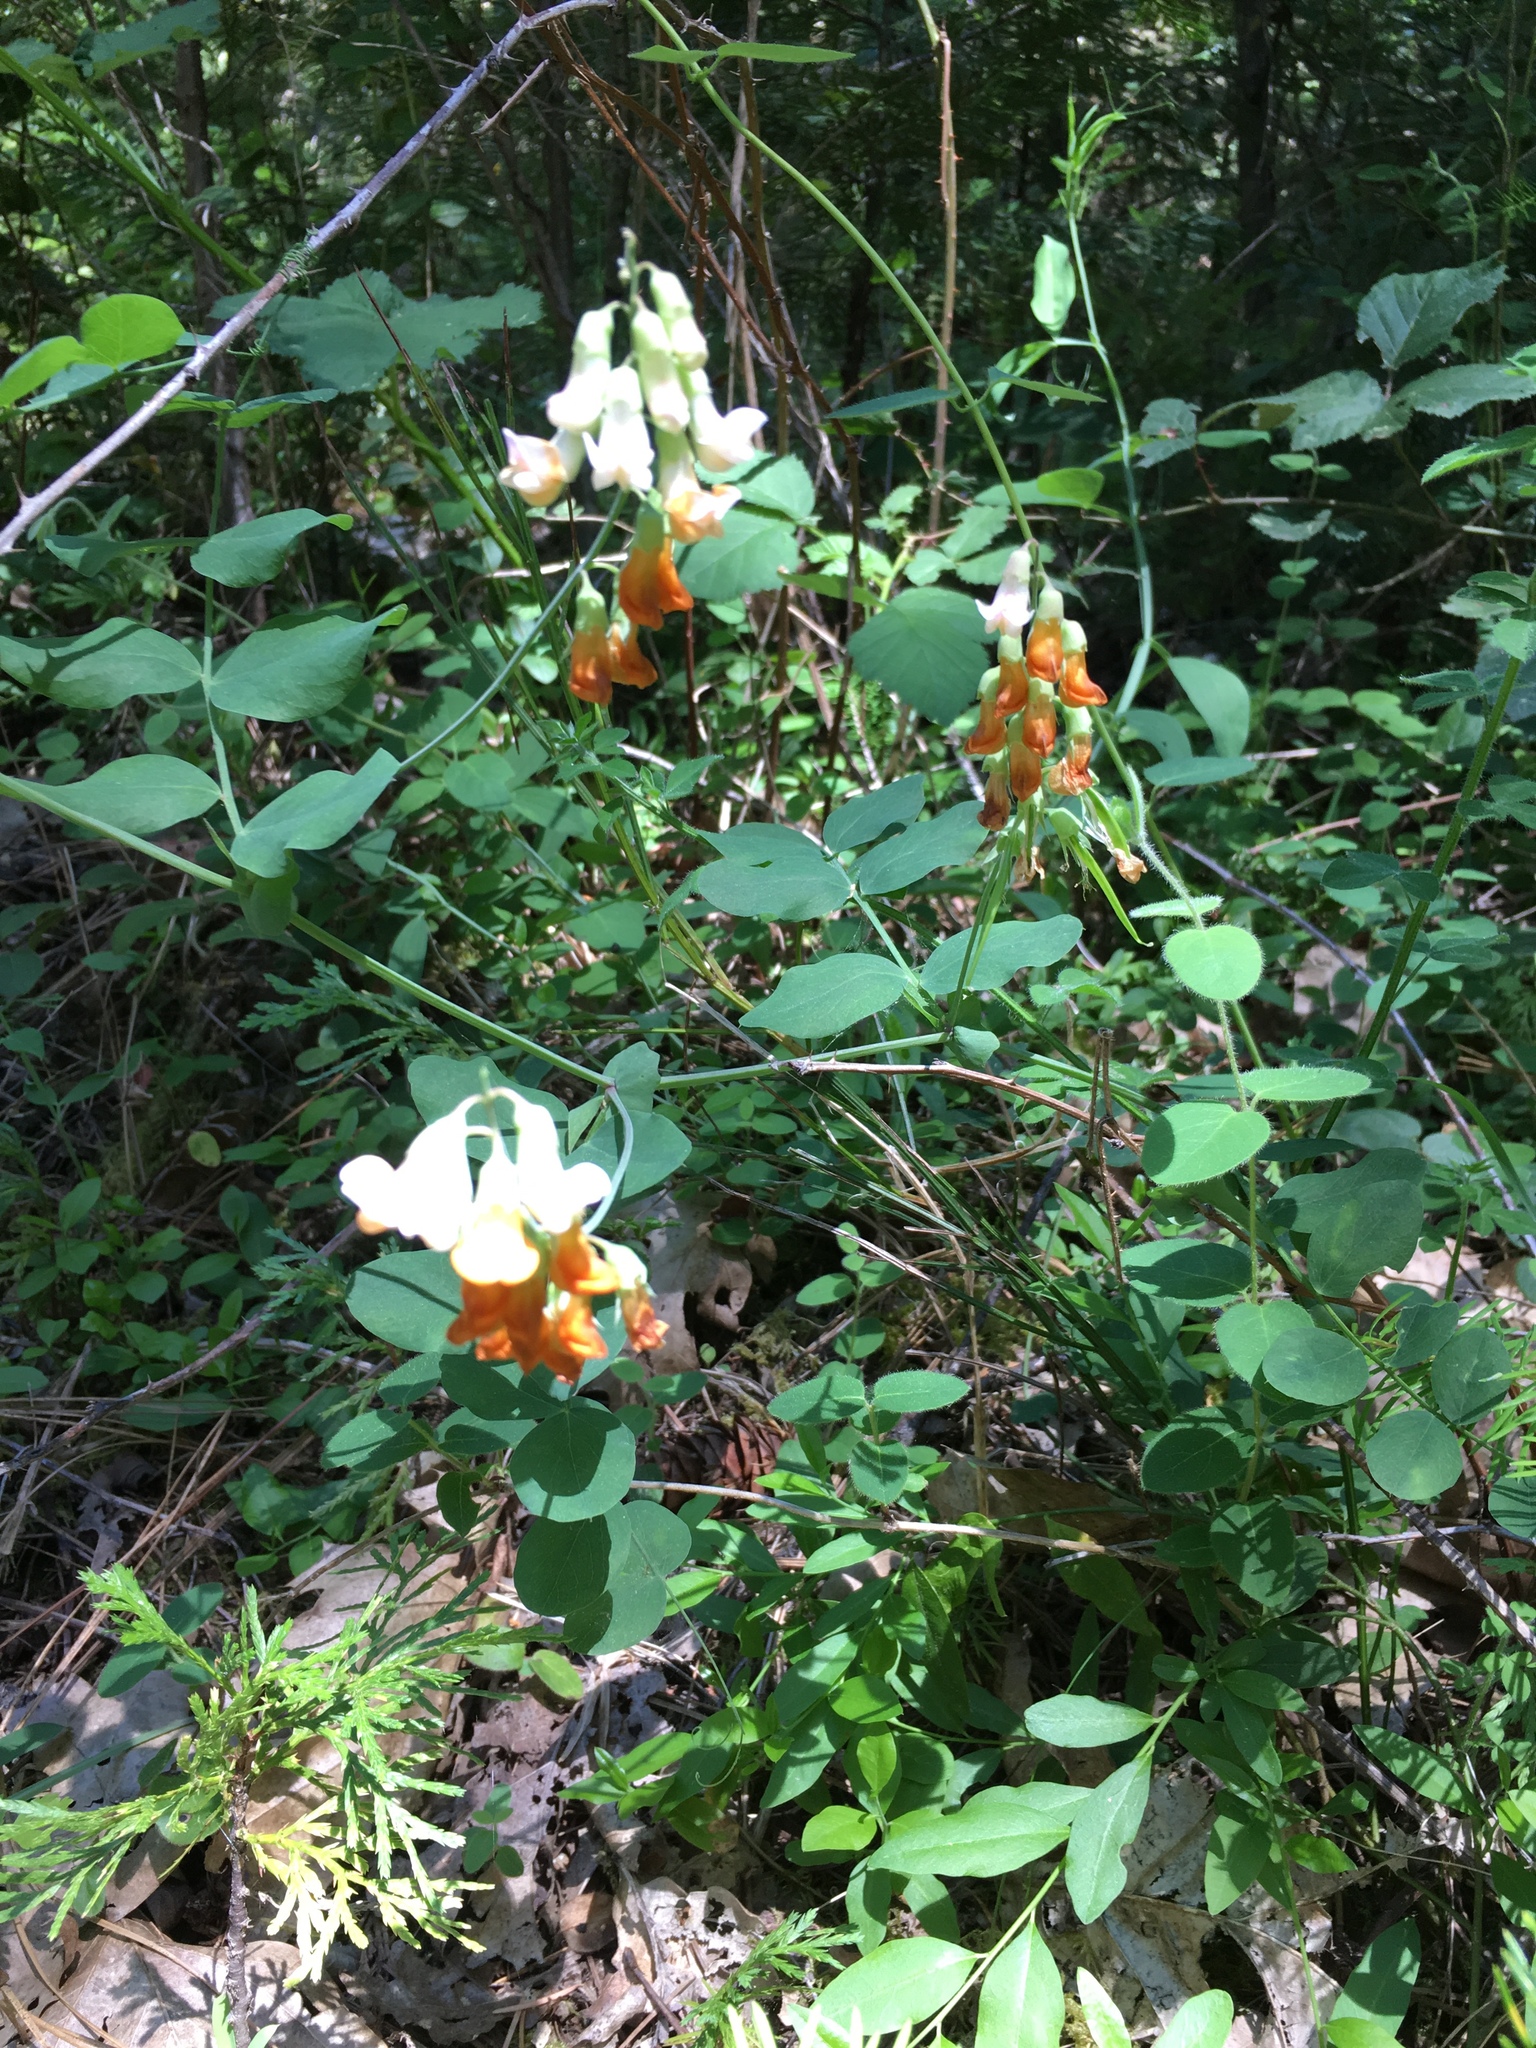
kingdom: Plantae
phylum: Tracheophyta
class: Magnoliopsida
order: Fabales
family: Fabaceae
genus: Lathyrus
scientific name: Lathyrus sulphureus
